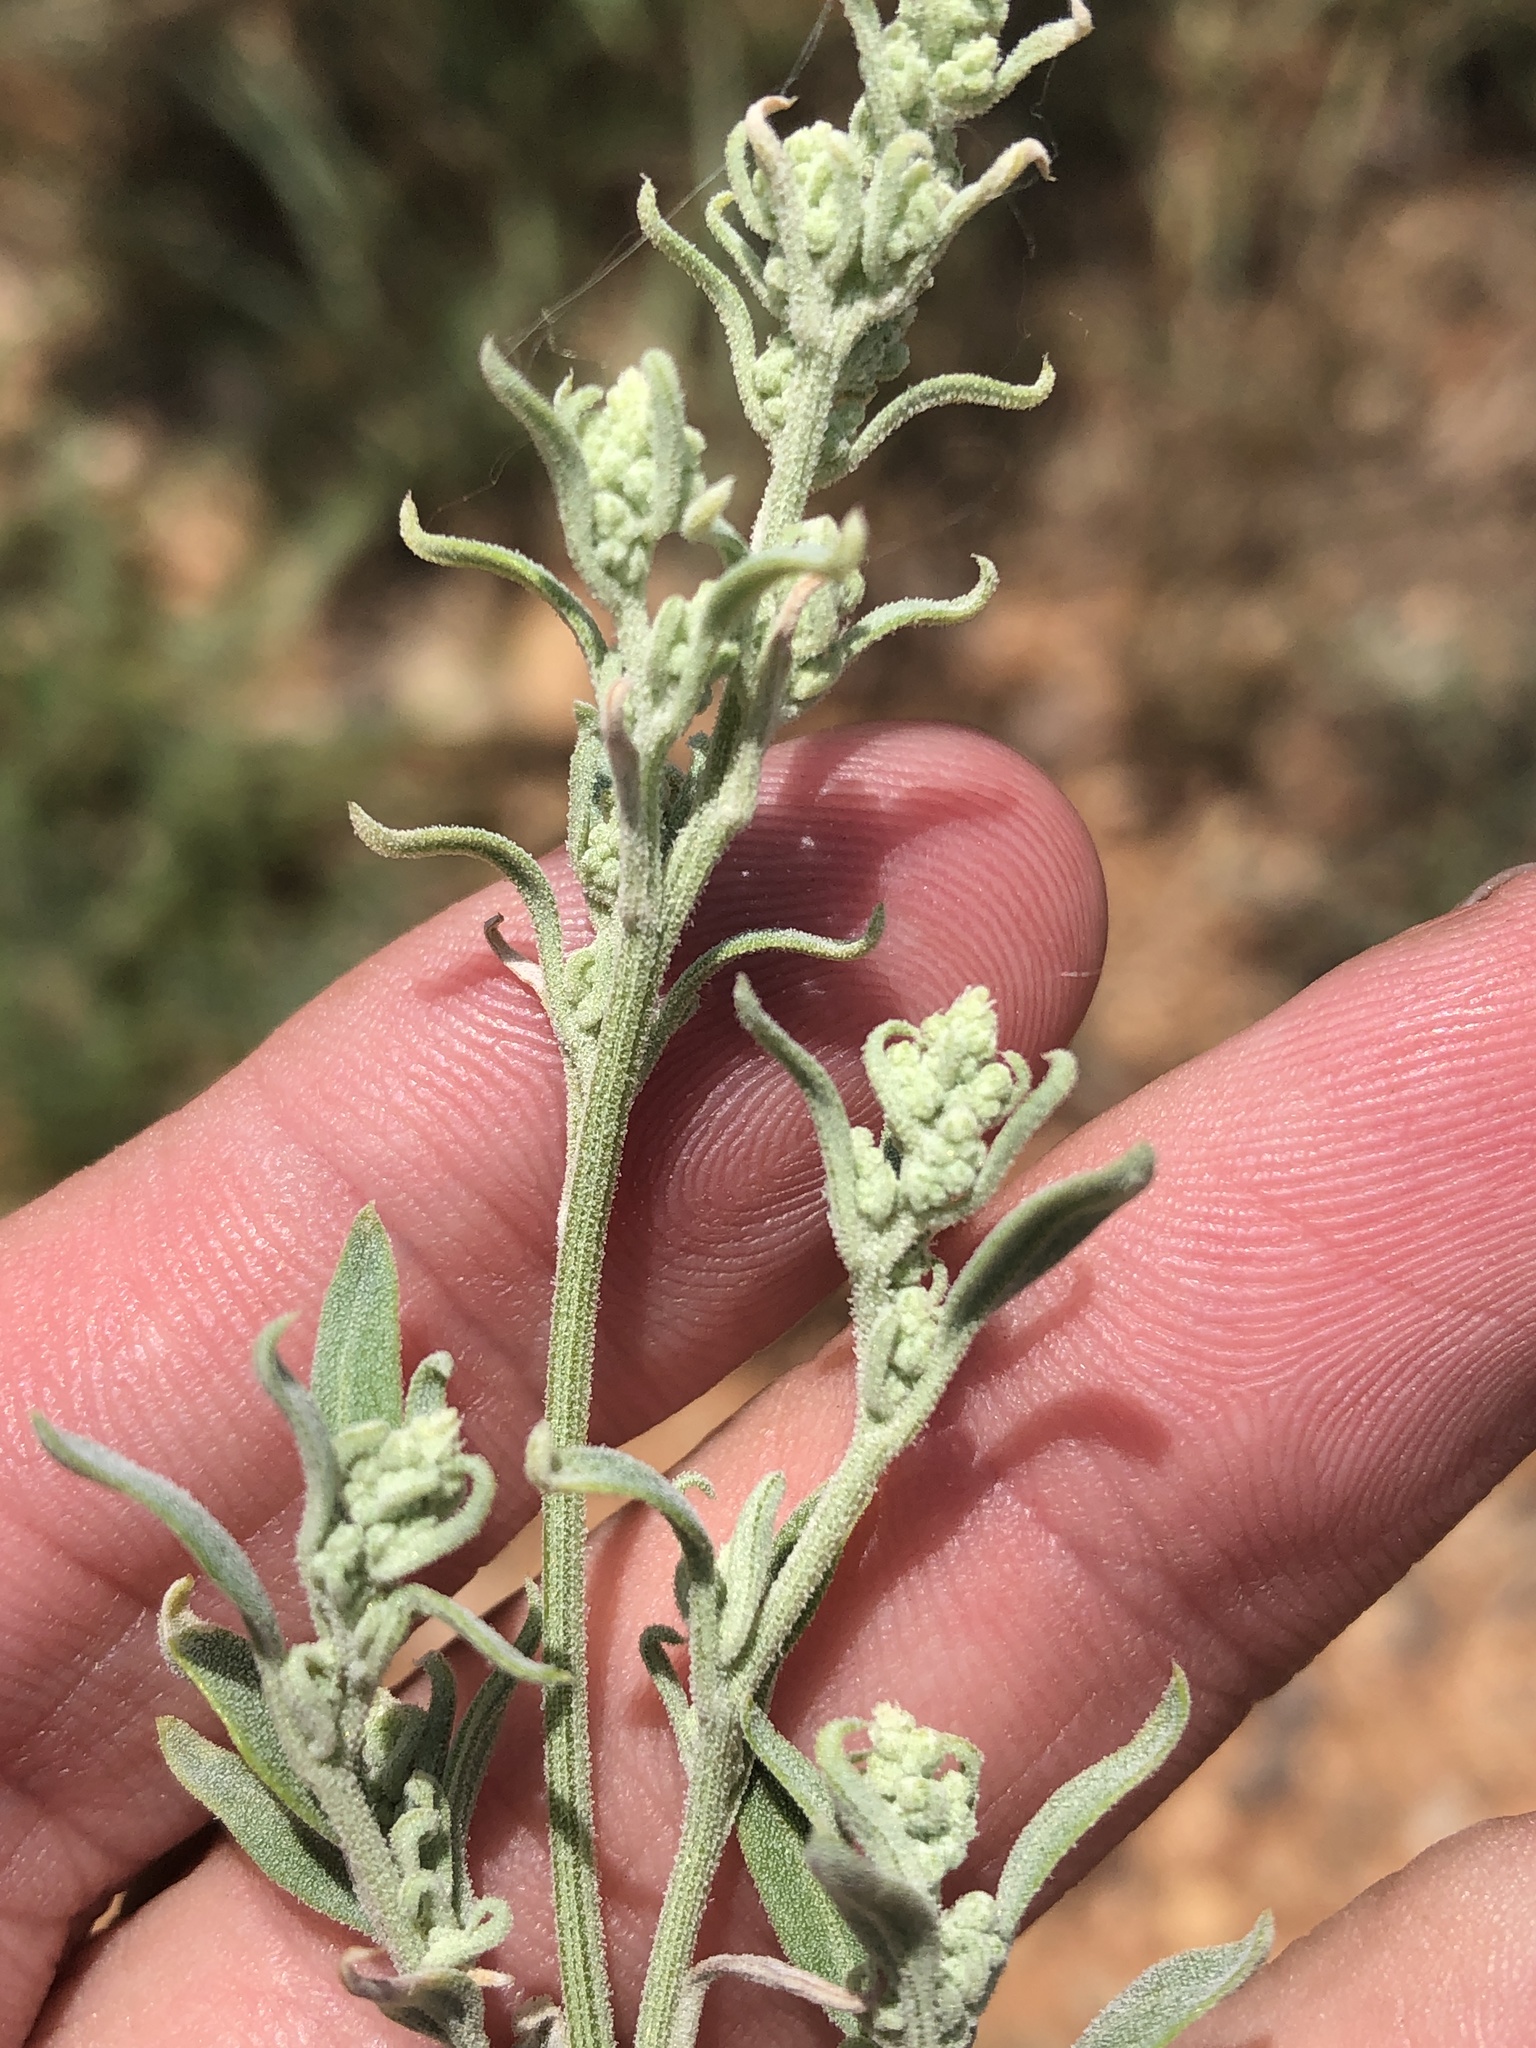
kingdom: Plantae
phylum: Tracheophyta
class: Magnoliopsida
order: Caryophyllales
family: Amaranthaceae
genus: Chenopodium
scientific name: Chenopodium pratericola
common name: Desert goosefoot
